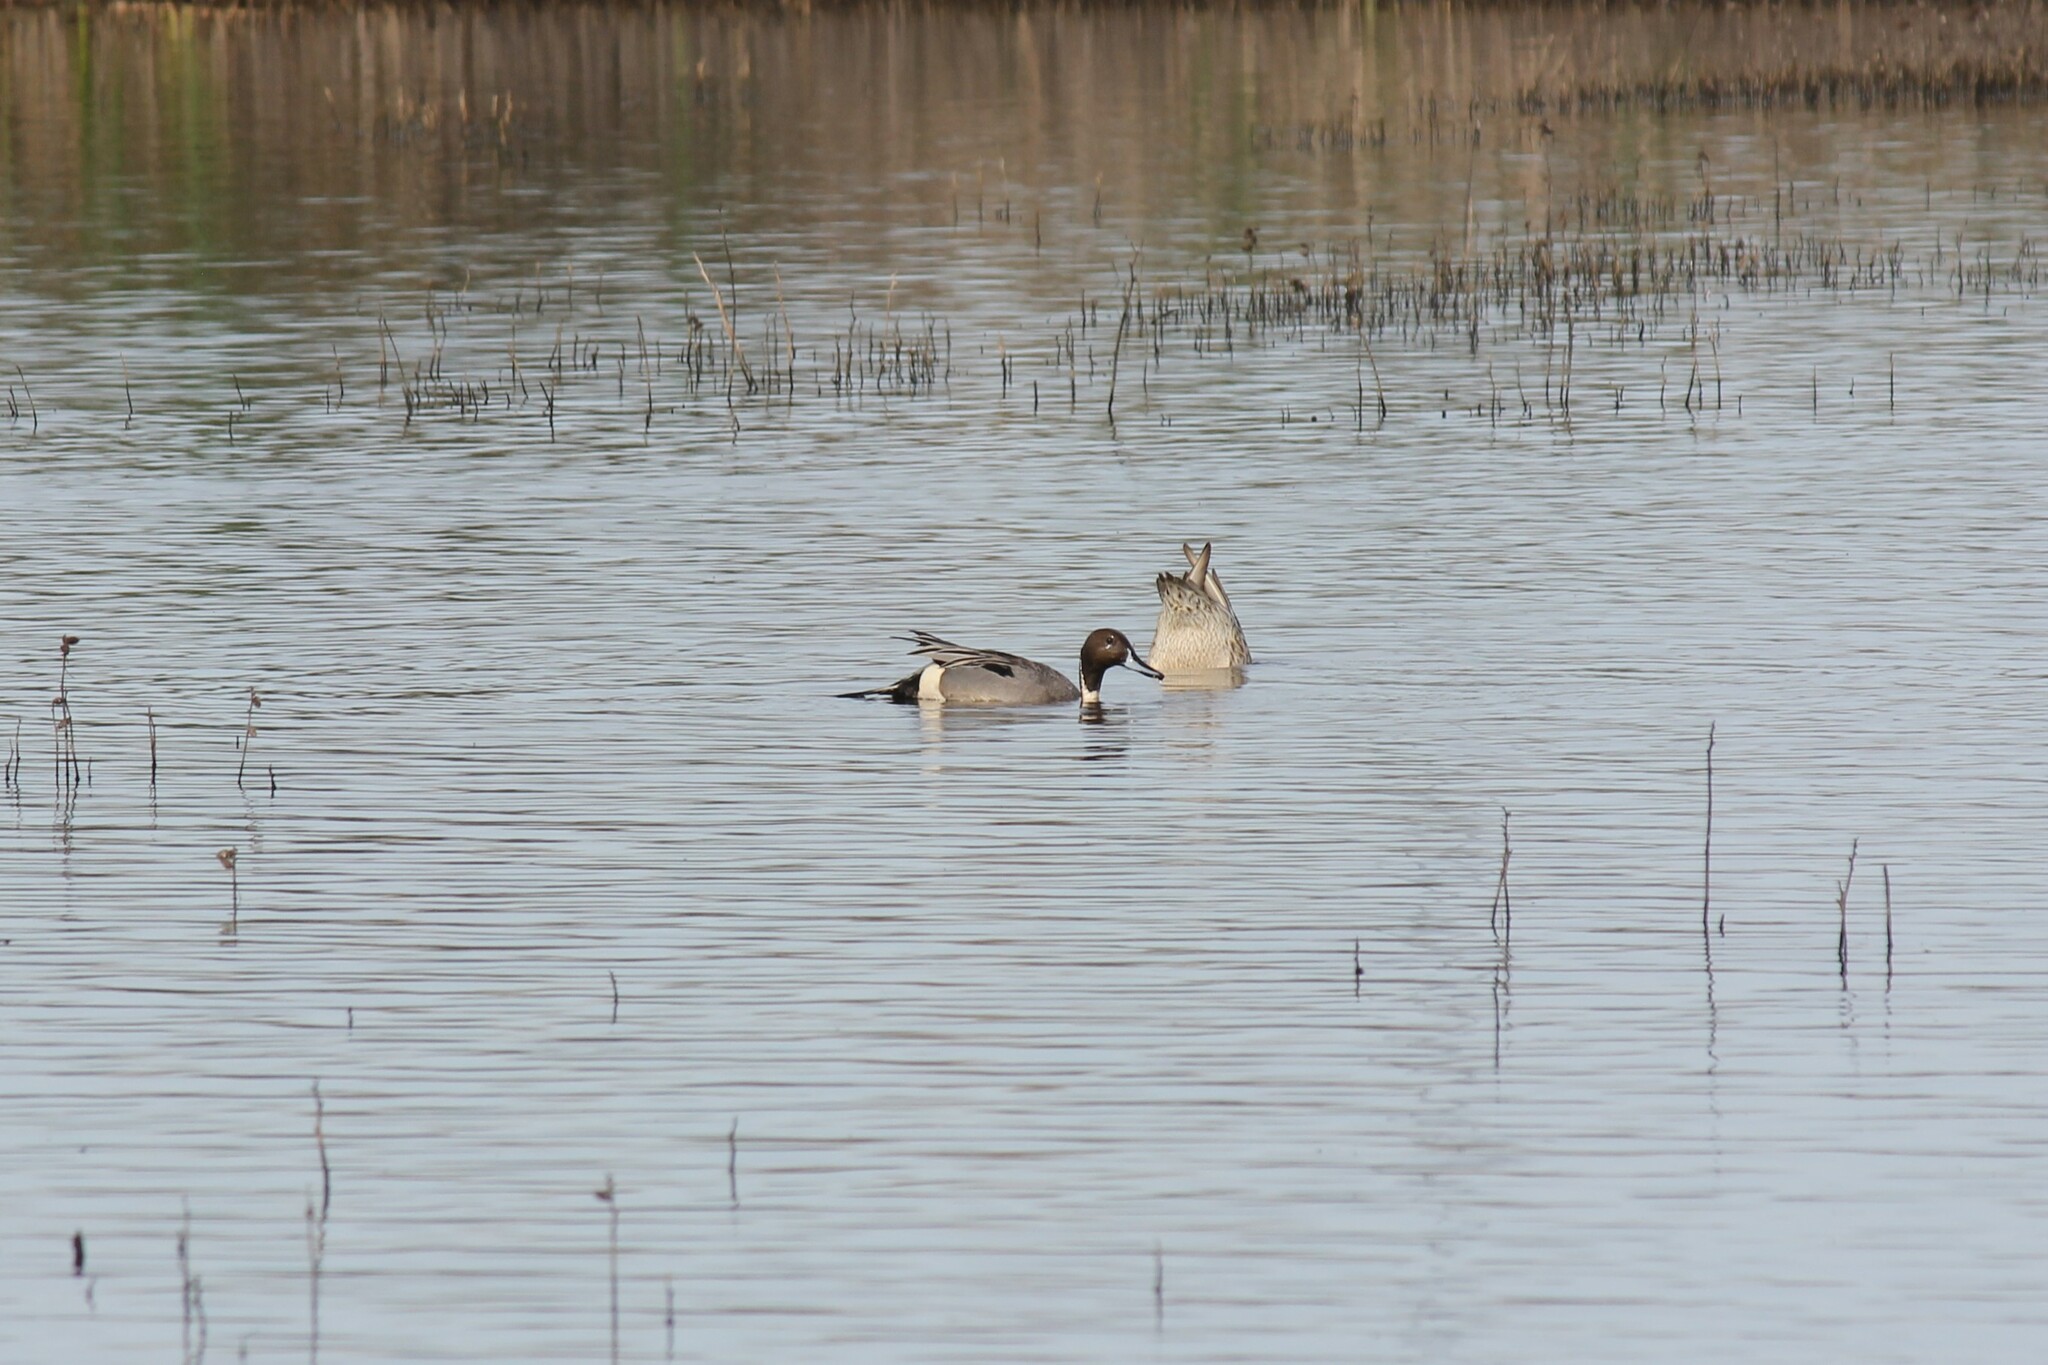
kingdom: Animalia
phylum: Chordata
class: Aves
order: Anseriformes
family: Anatidae
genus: Anas
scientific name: Anas acuta
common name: Northern pintail
